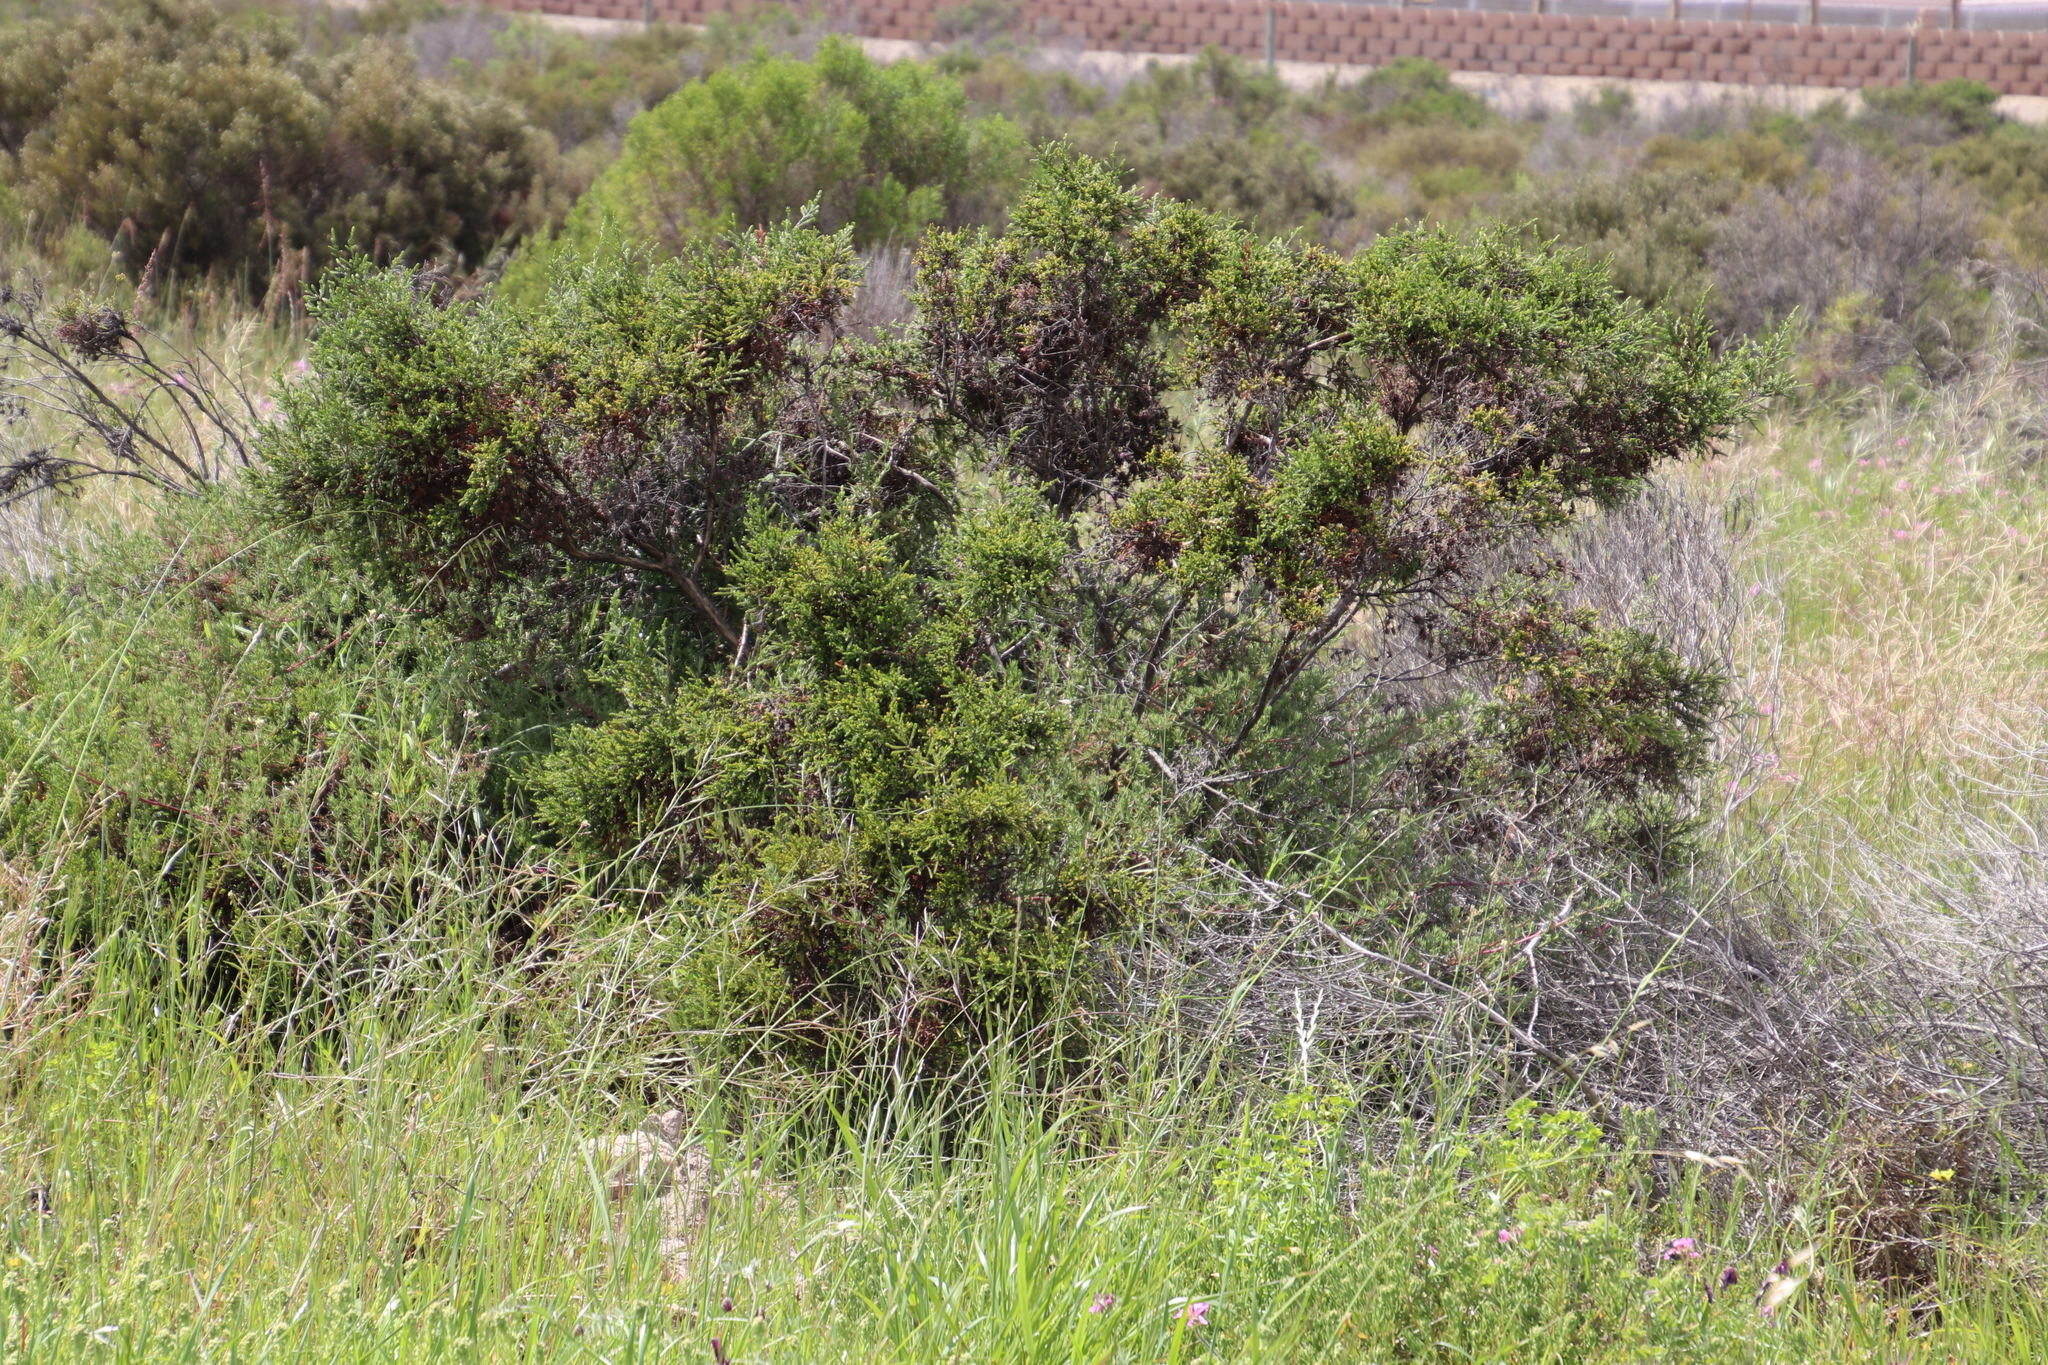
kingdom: Plantae
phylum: Tracheophyta
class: Magnoliopsida
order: Malvales
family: Thymelaeaceae
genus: Passerina
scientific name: Passerina corymbosa
